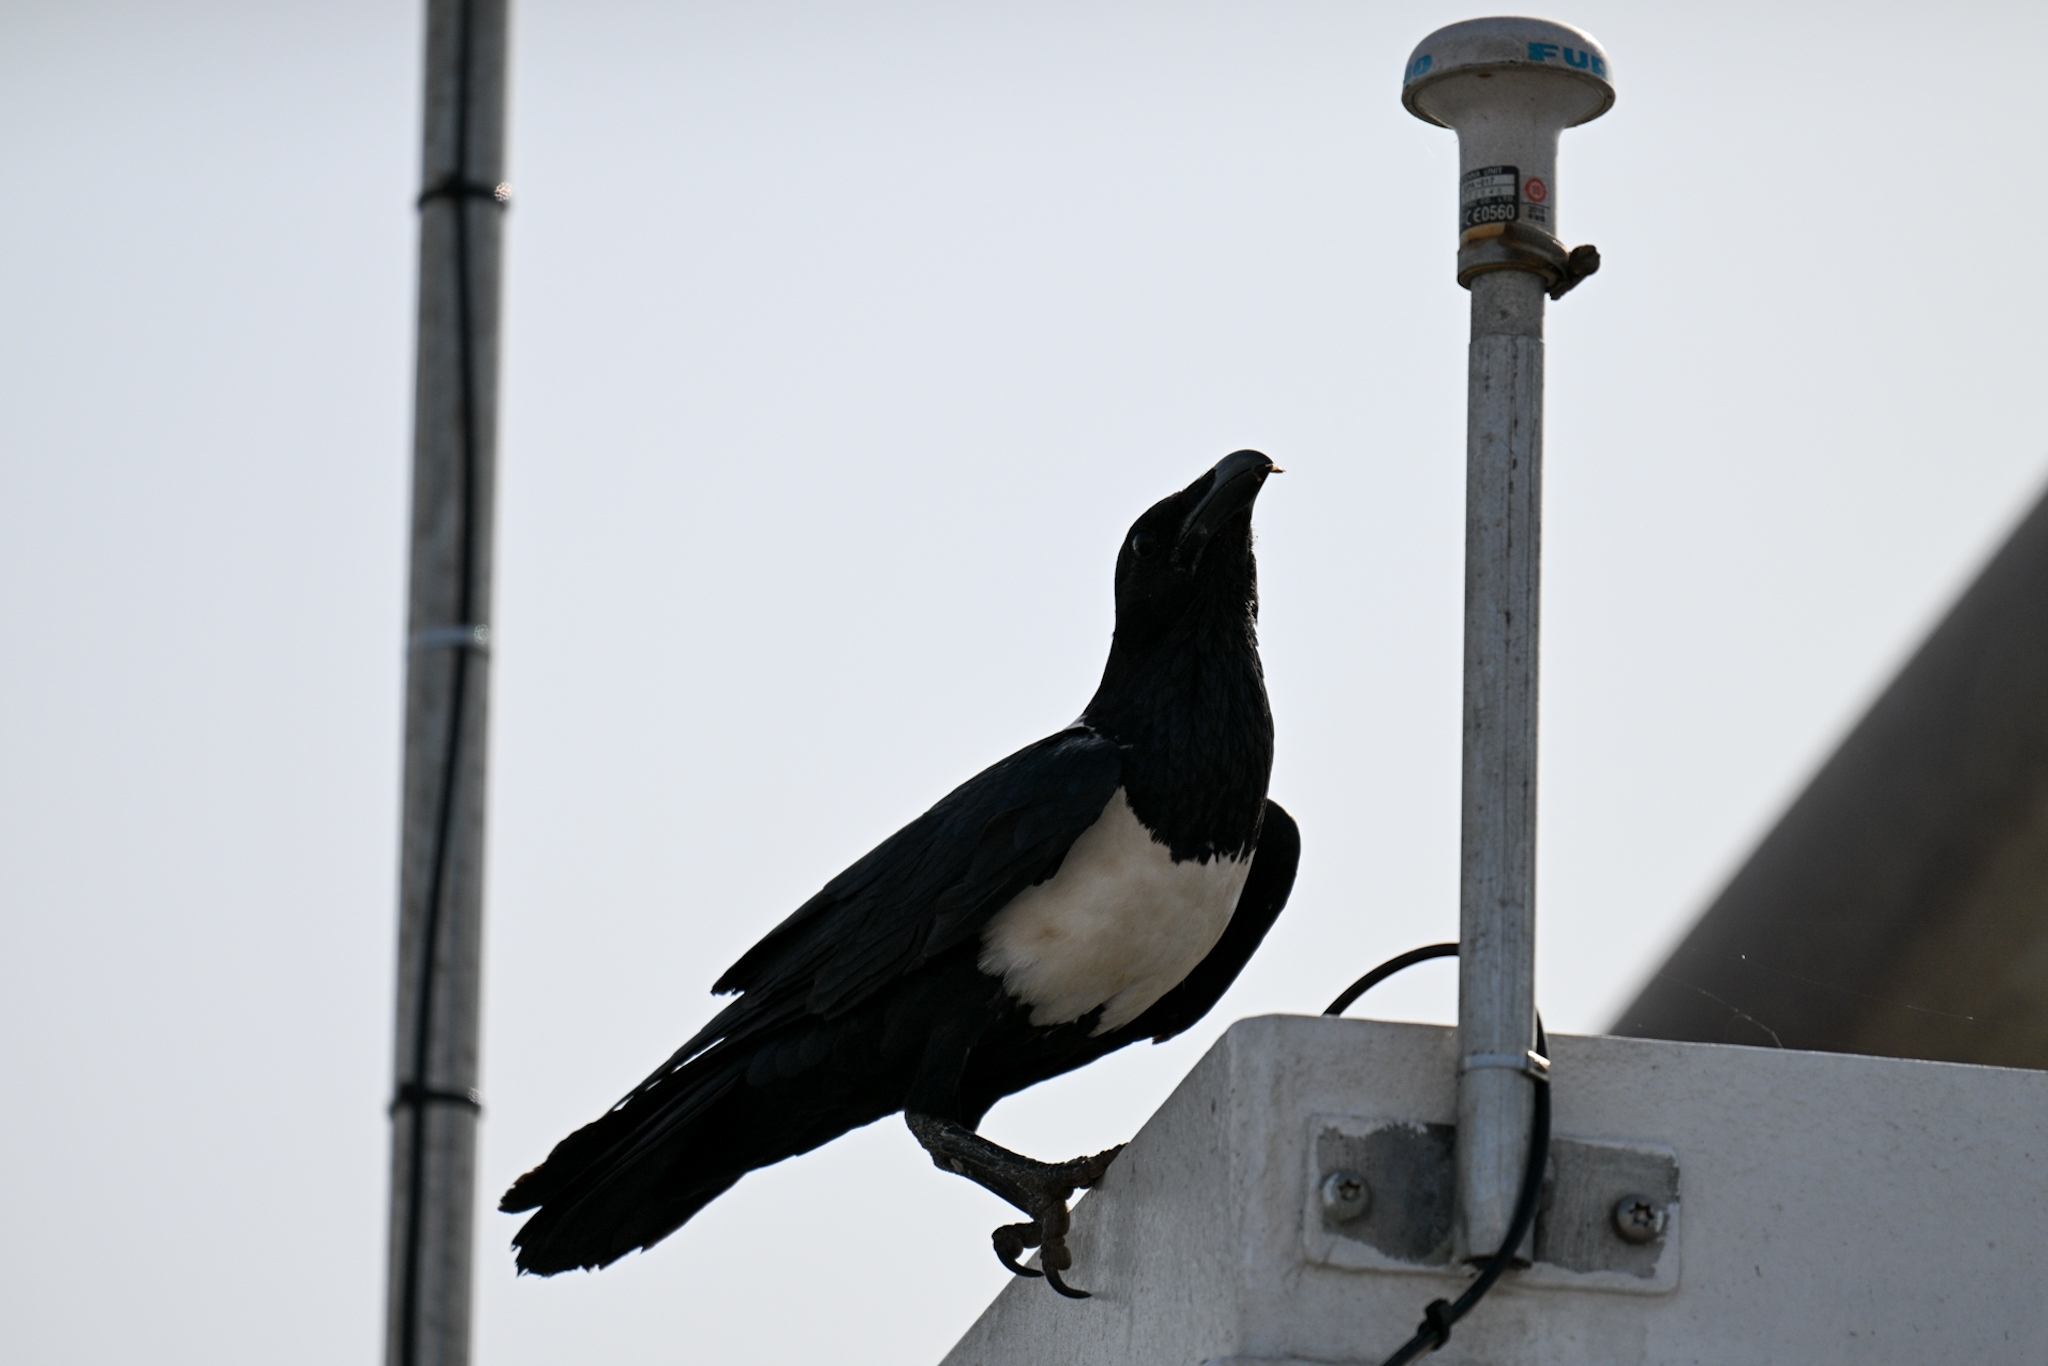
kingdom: Animalia
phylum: Chordata
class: Aves
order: Passeriformes
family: Corvidae
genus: Corvus
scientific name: Corvus albus
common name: Pied crow
